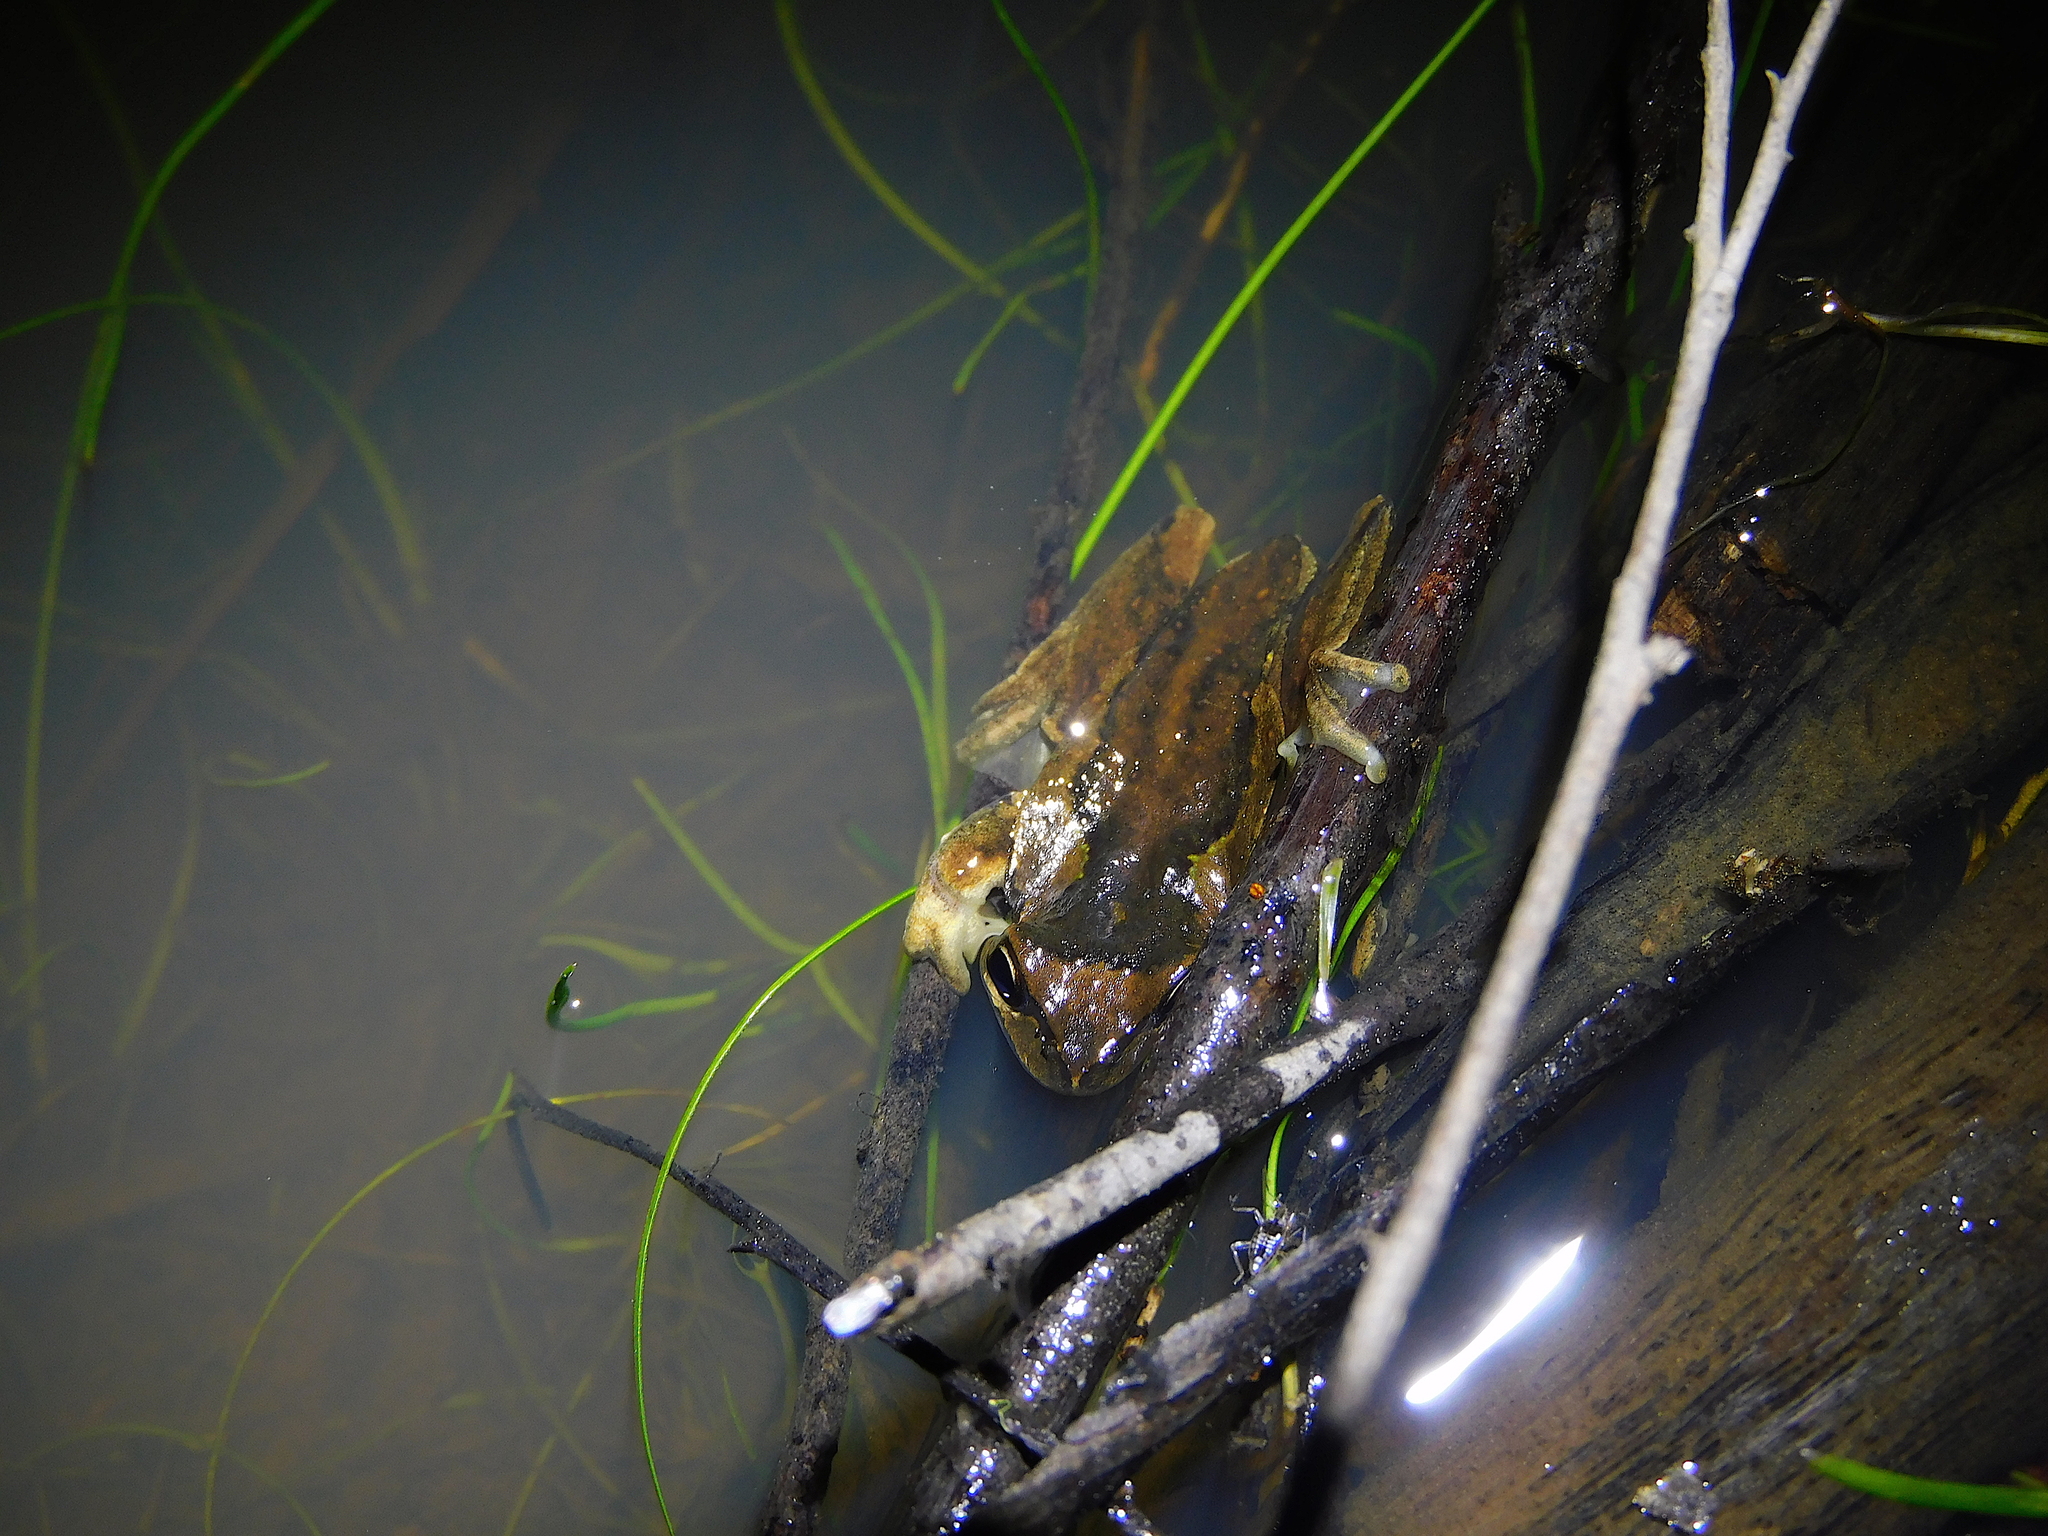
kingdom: Animalia
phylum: Chordata
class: Amphibia
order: Anura
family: Pelodryadidae
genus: Litoria
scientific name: Litoria ewingii
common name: Southern brown tree frog
